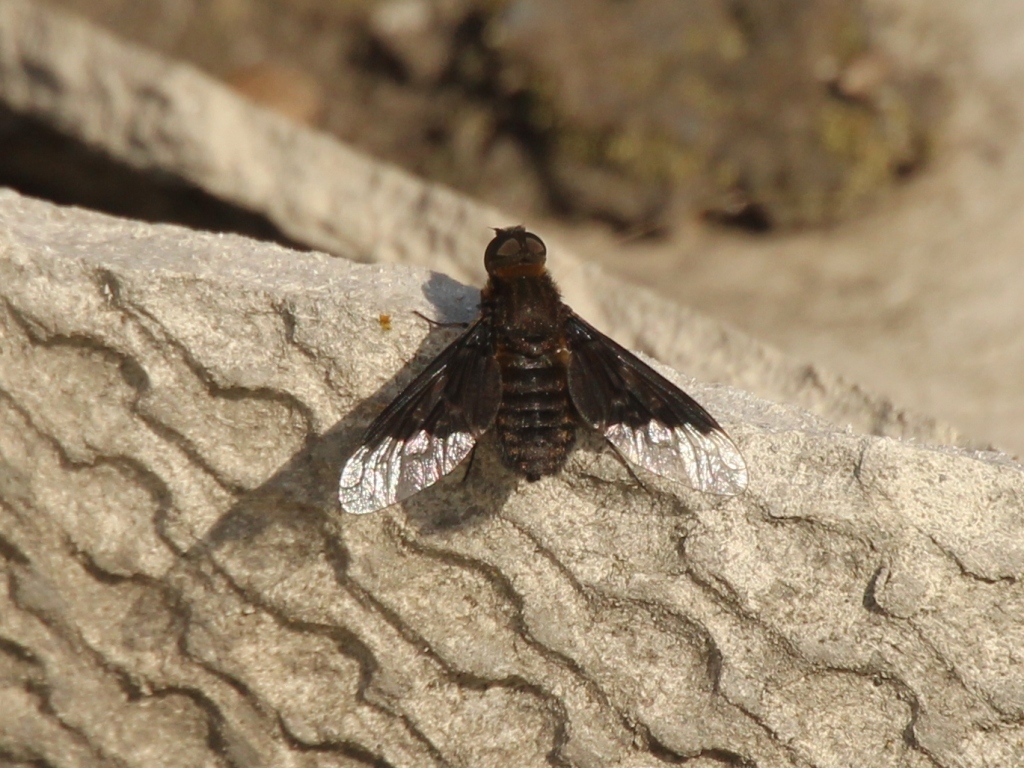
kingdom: Animalia
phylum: Arthropoda
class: Insecta
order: Diptera
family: Bombyliidae
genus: Hemipenthes
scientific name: Hemipenthes morio
